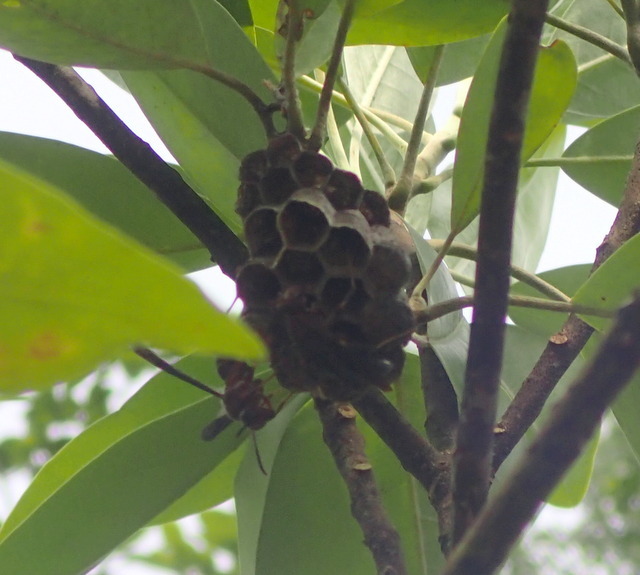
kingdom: Animalia
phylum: Arthropoda
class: Insecta
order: Hymenoptera
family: Eumenidae
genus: Polistes
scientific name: Polistes annularis
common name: Ringed paper wasp
